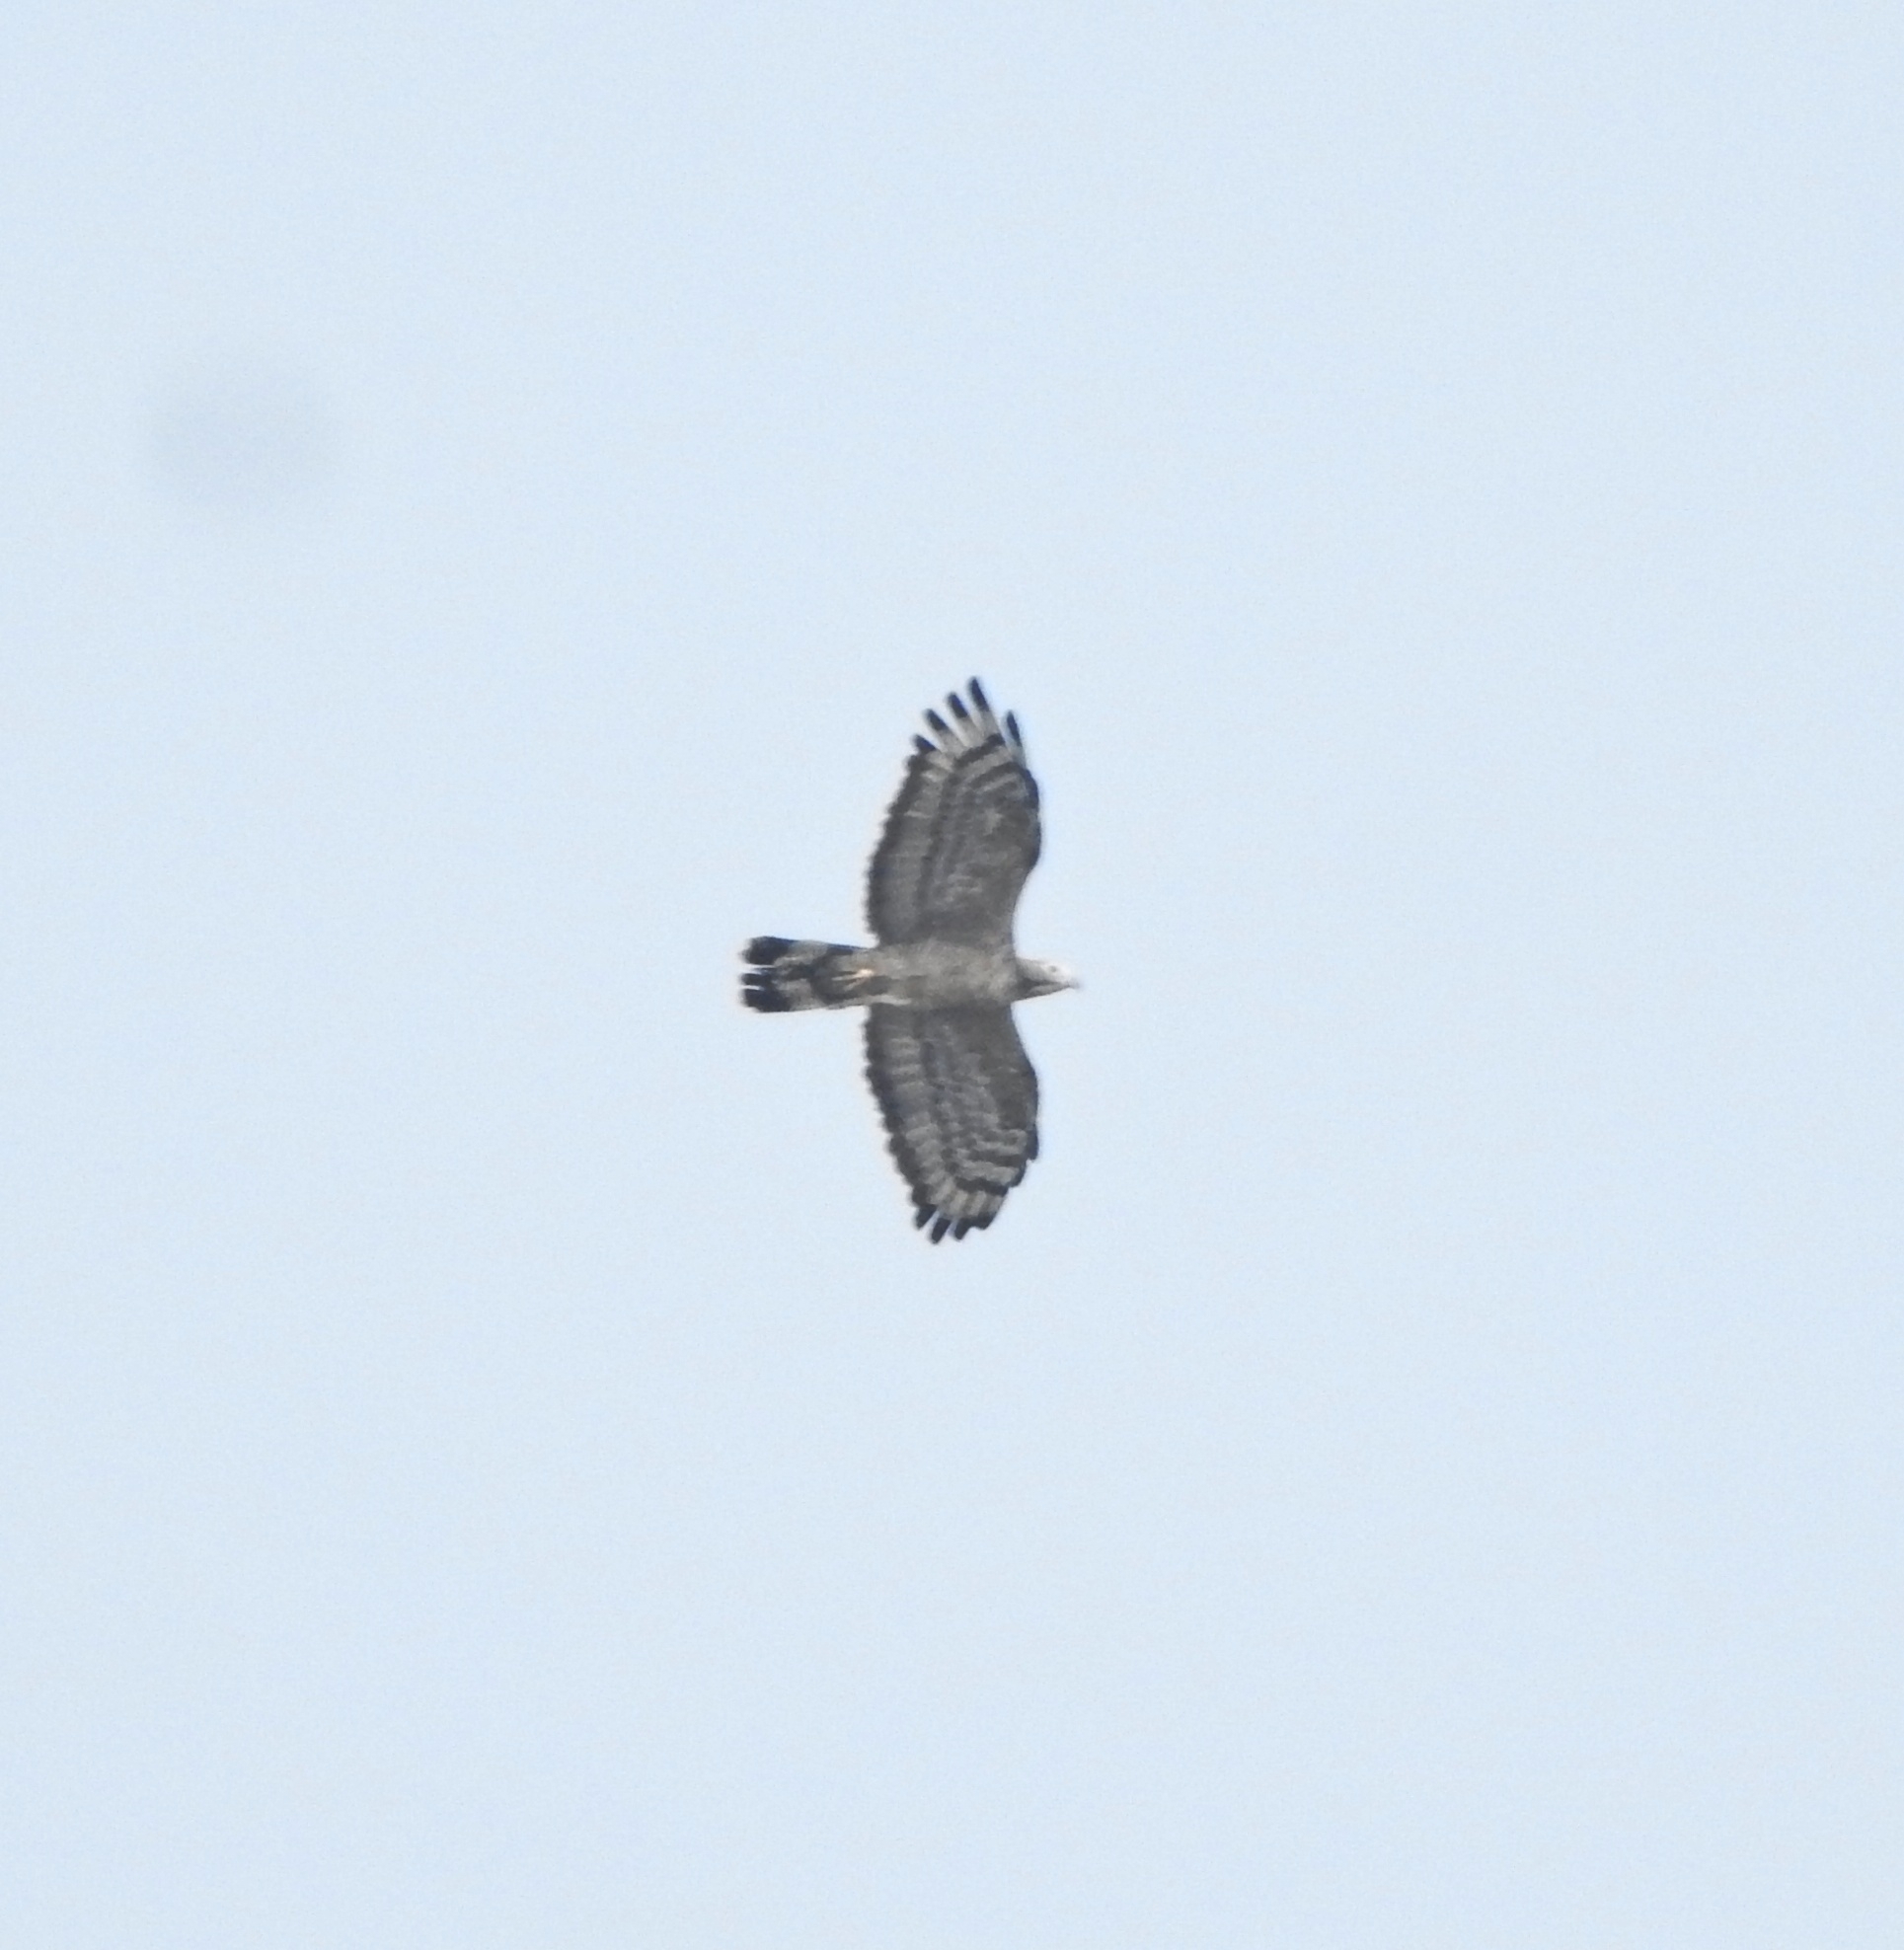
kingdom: Animalia
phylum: Chordata
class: Aves
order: Accipitriformes
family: Accipitridae
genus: Pernis
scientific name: Pernis ptilorhynchus
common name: Crested honey buzzard
